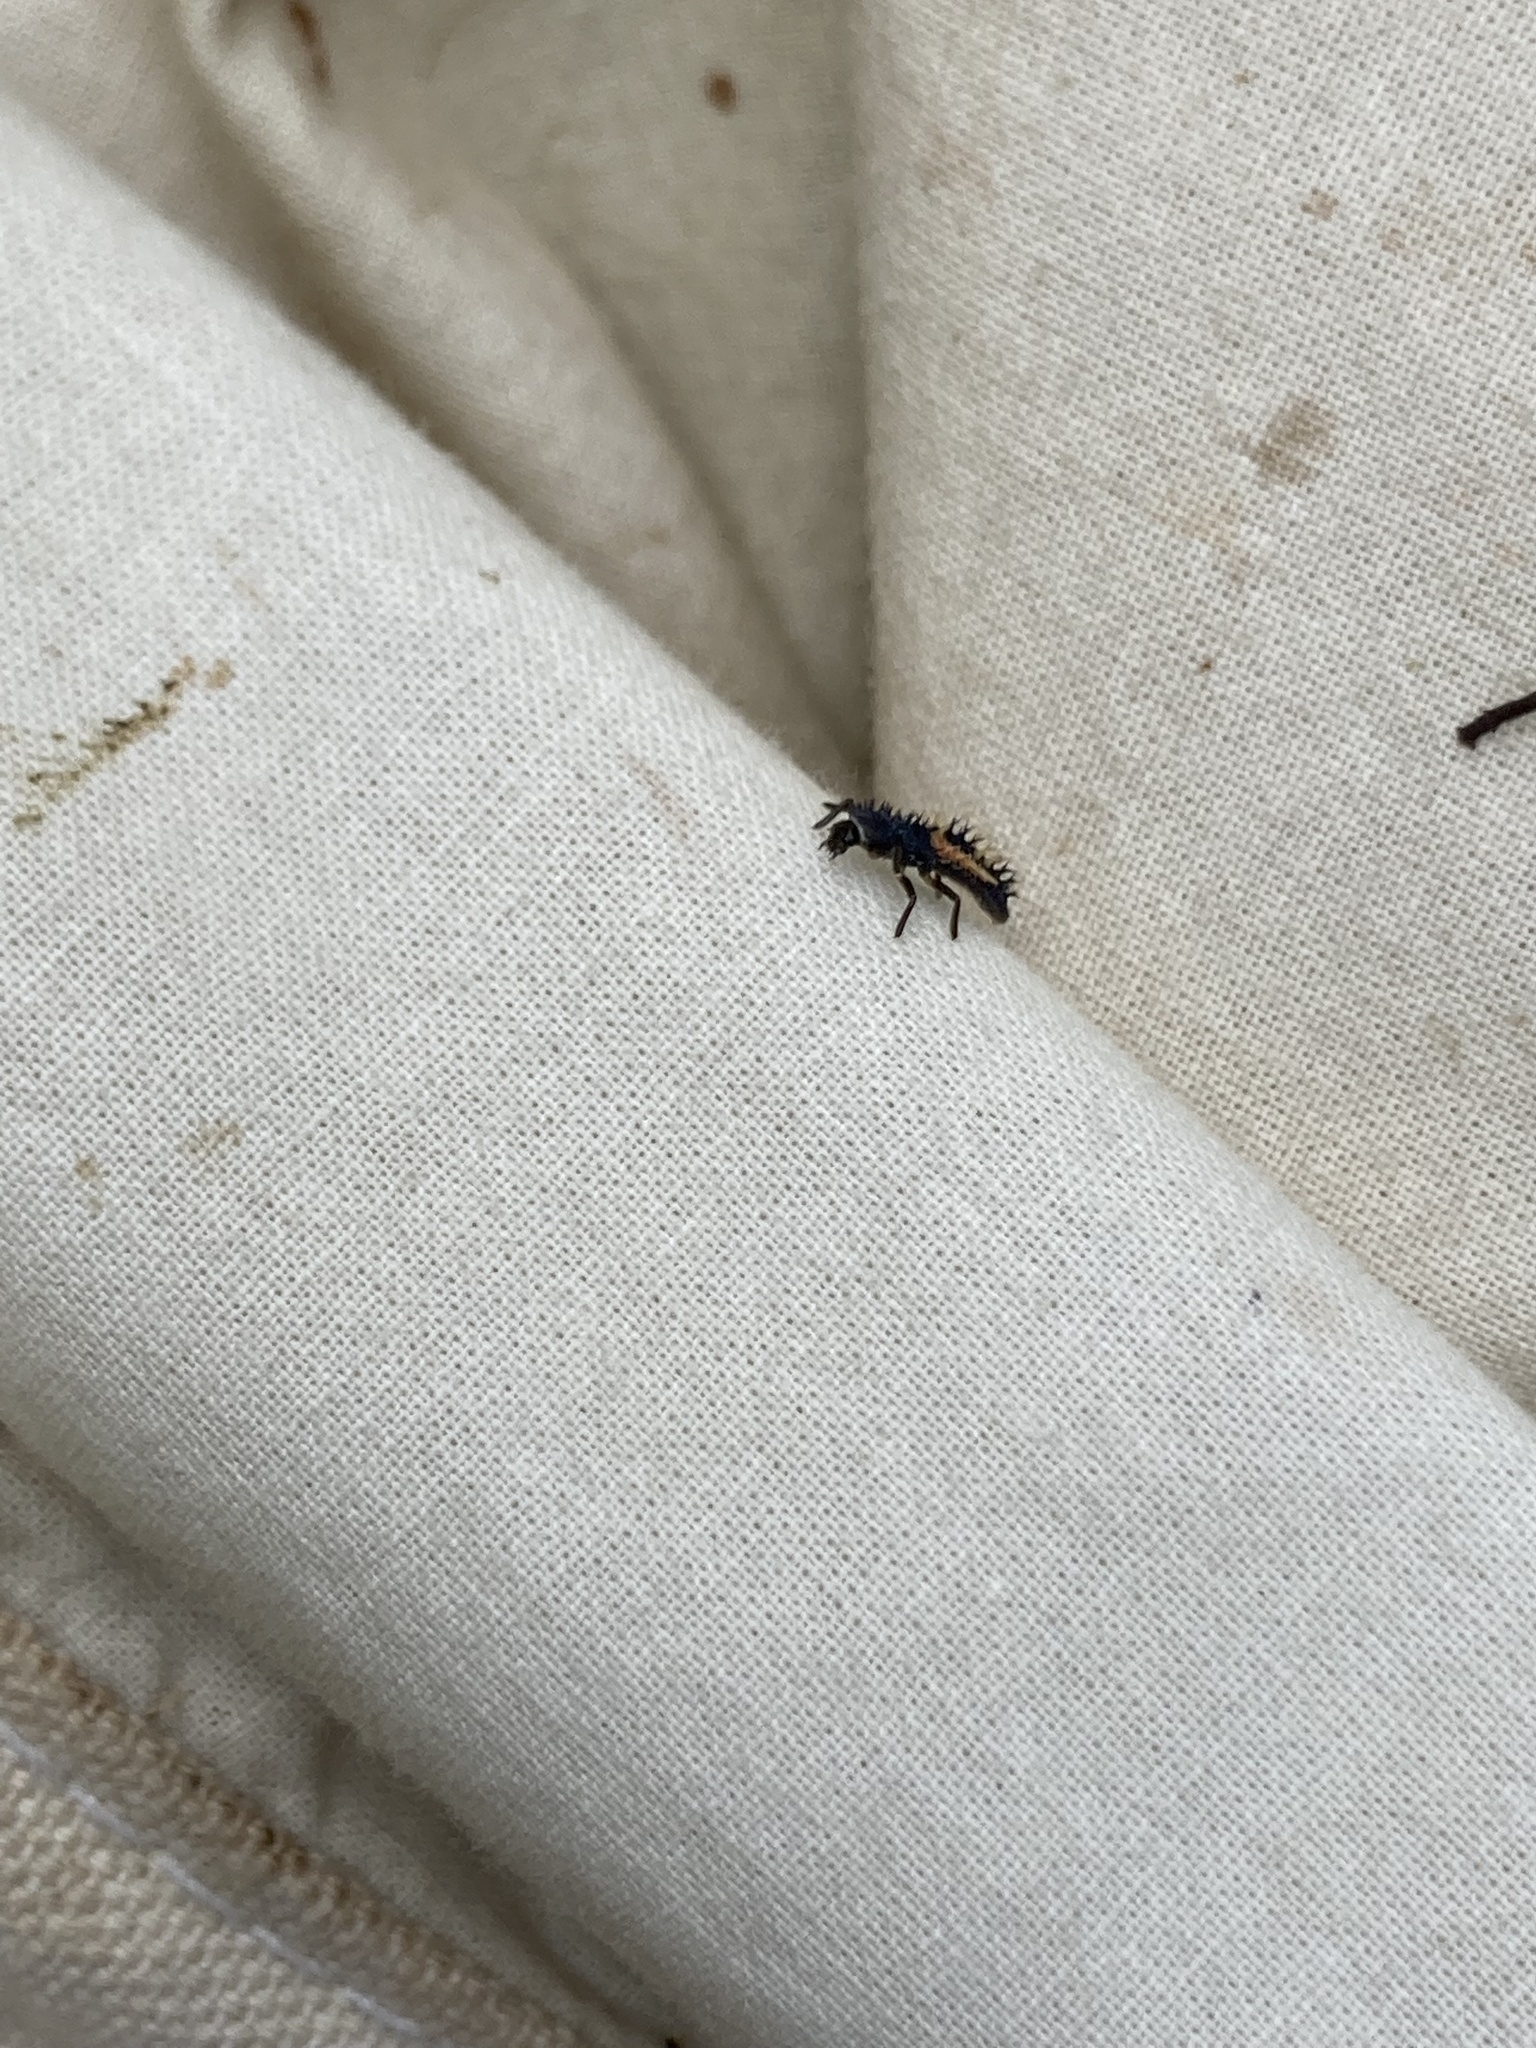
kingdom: Animalia
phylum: Arthropoda
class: Insecta
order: Coleoptera
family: Coccinellidae
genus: Harmonia
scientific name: Harmonia axyridis
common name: Harlequin ladybird
